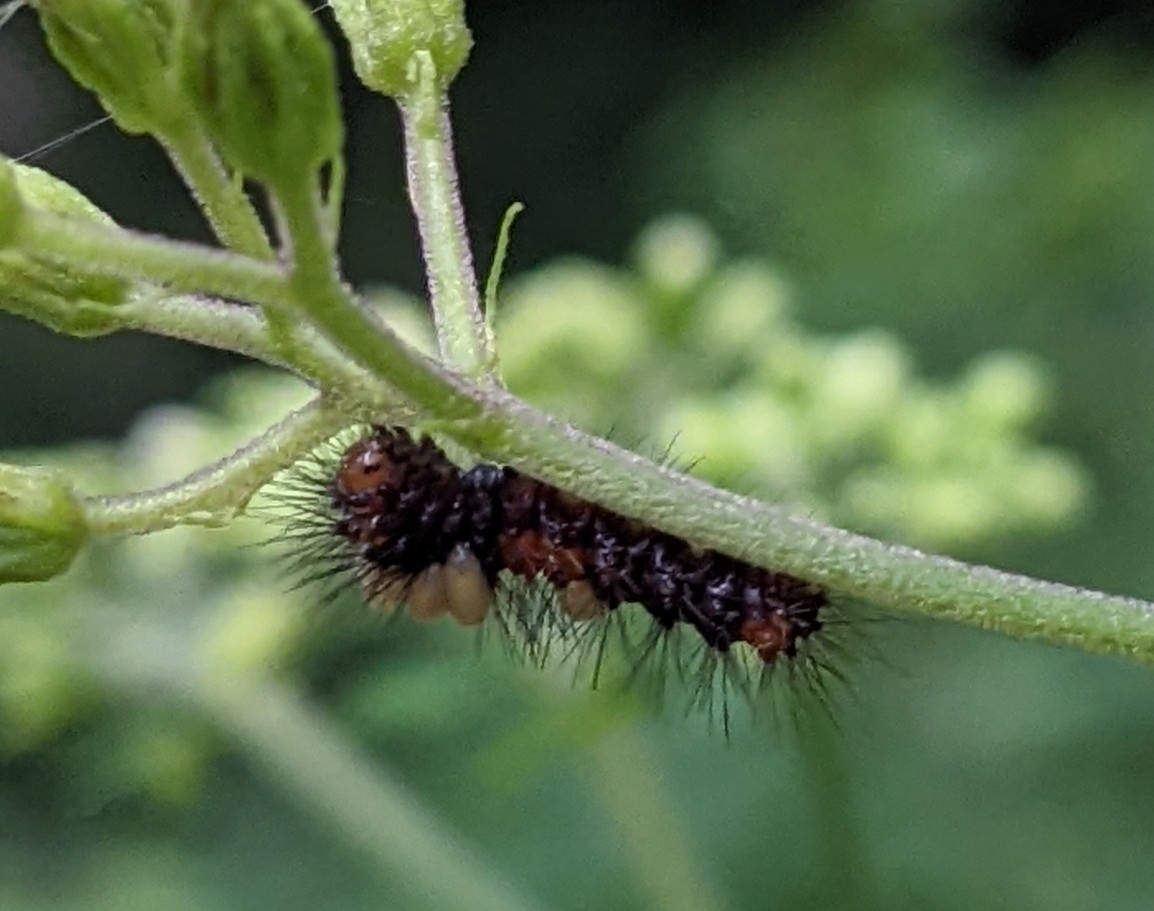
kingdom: Animalia
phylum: Arthropoda
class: Insecta
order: Lepidoptera
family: Erebidae
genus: Hypercompe
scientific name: Hypercompe scribonia
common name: Giant leopard moth
